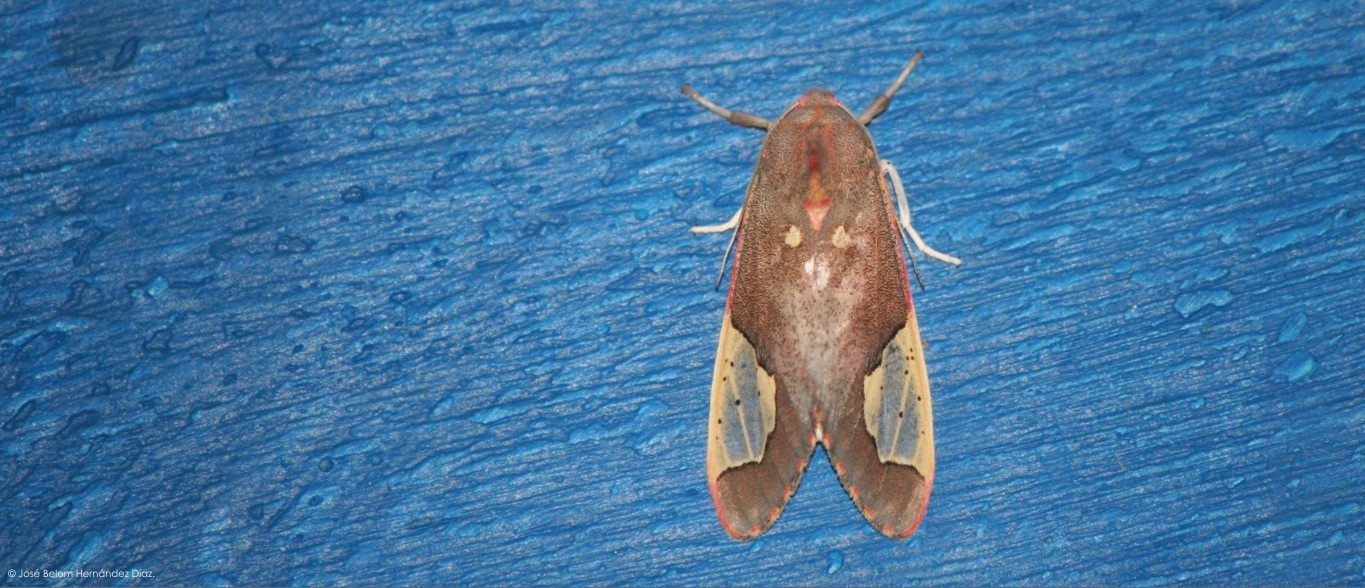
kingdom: Animalia
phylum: Arthropoda
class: Insecta
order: Lepidoptera
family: Erebidae
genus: Bertholdia
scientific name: Bertholdia specularis
